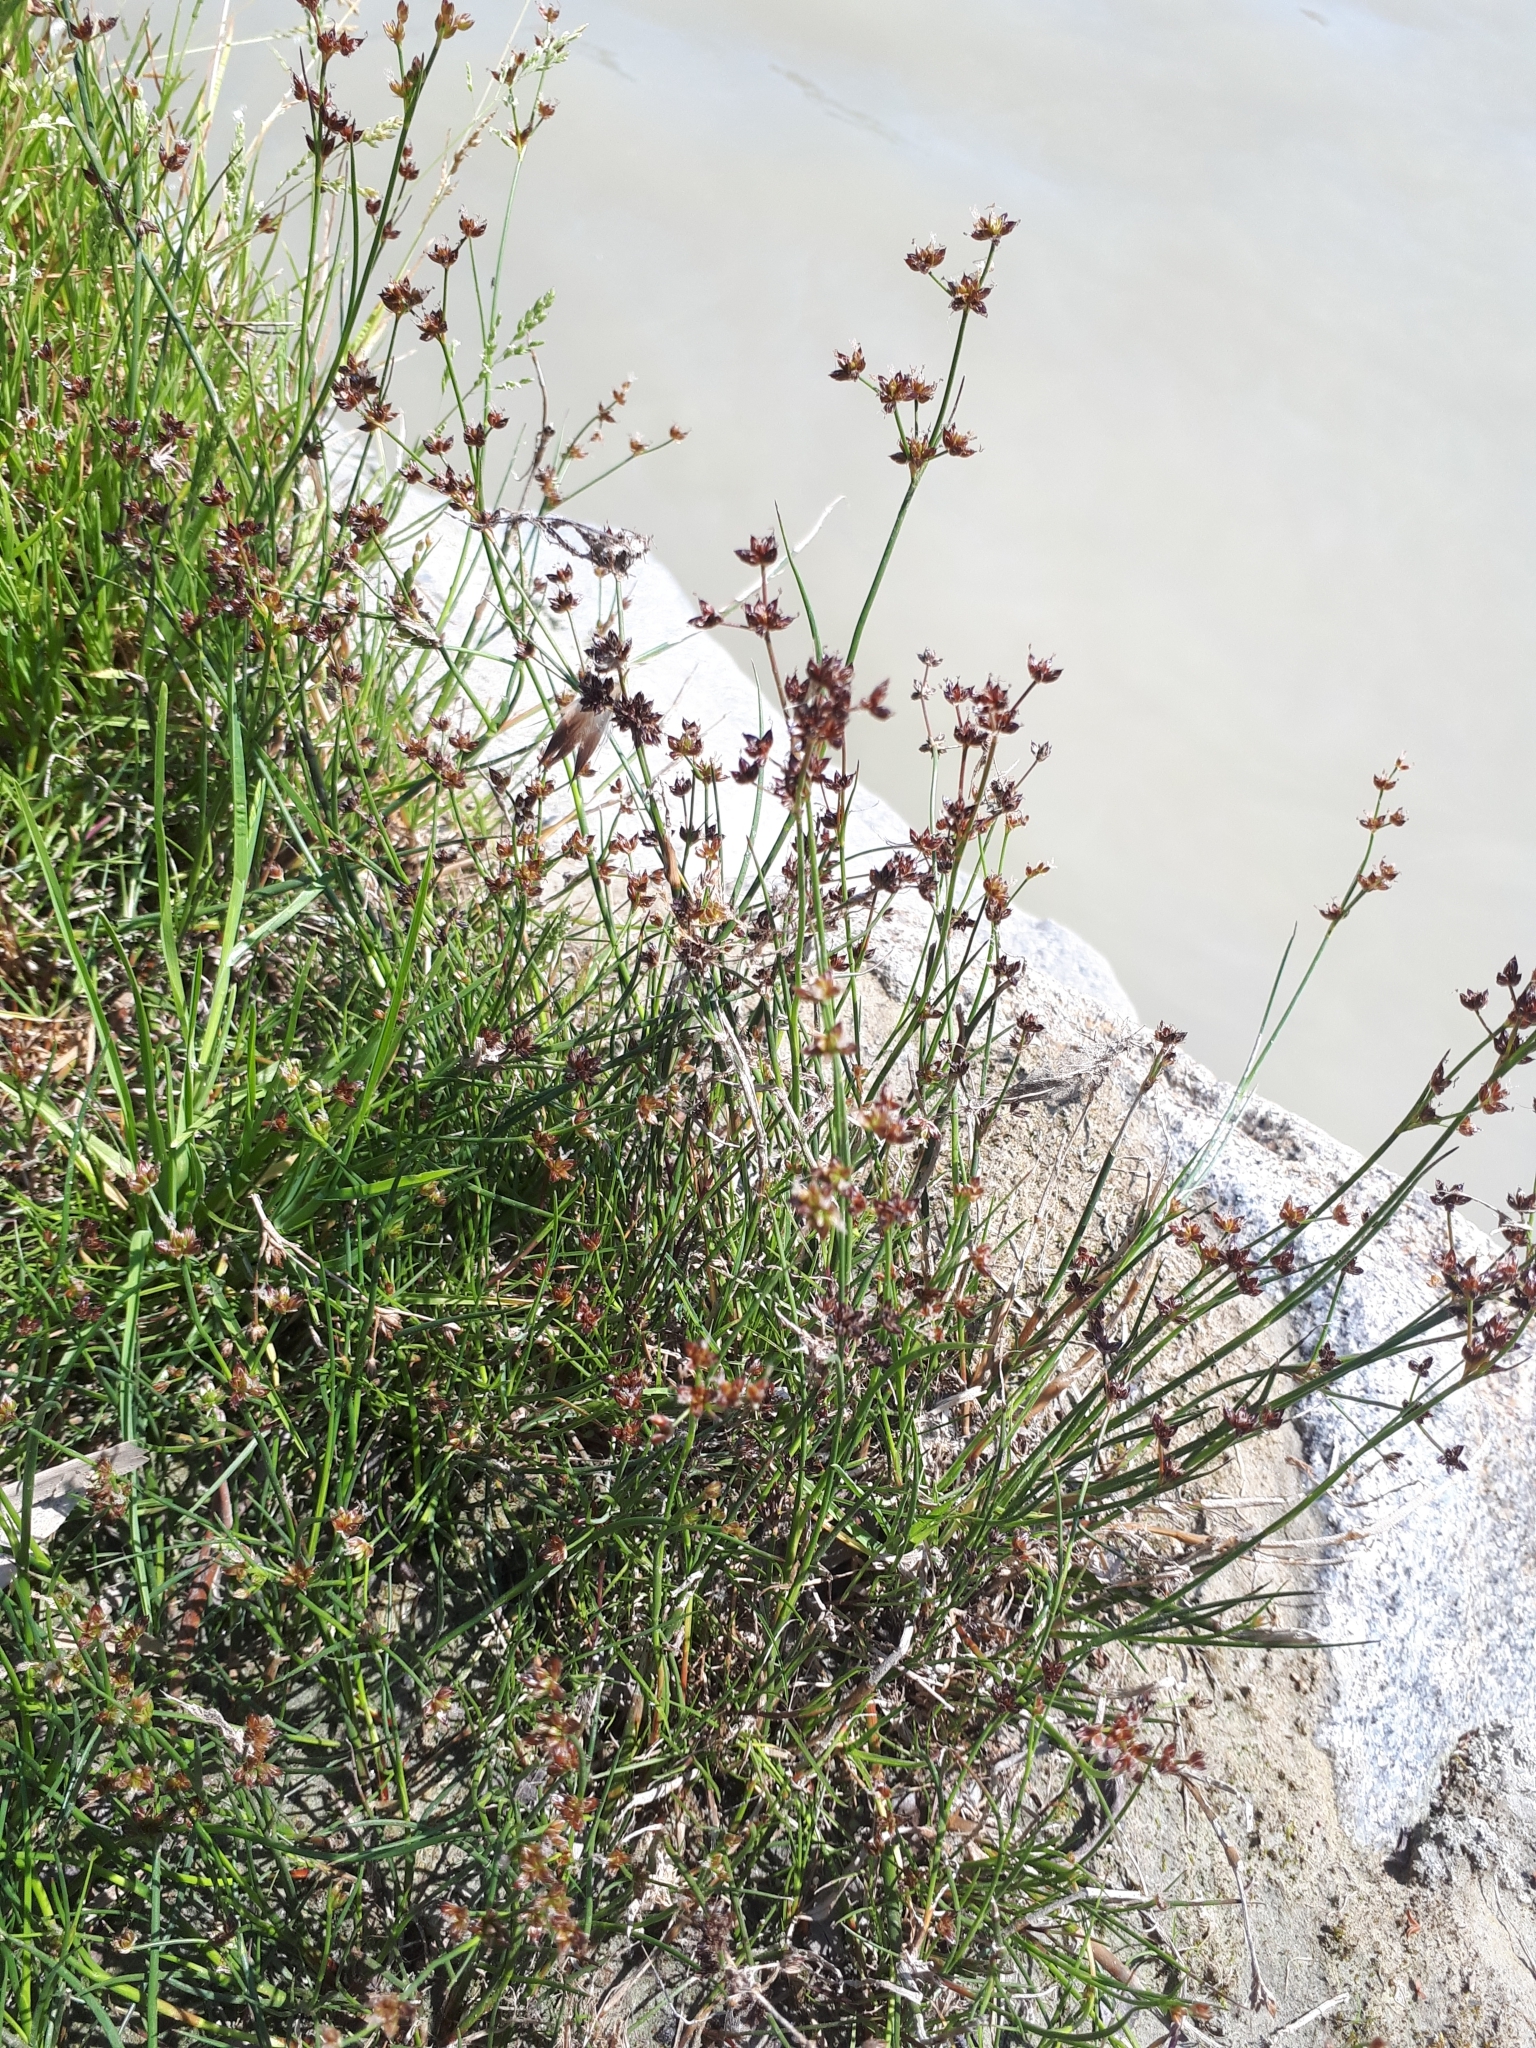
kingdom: Plantae
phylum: Tracheophyta
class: Liliopsida
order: Poales
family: Juncaceae
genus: Juncus
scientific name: Juncus articulatus
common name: Jointed rush
